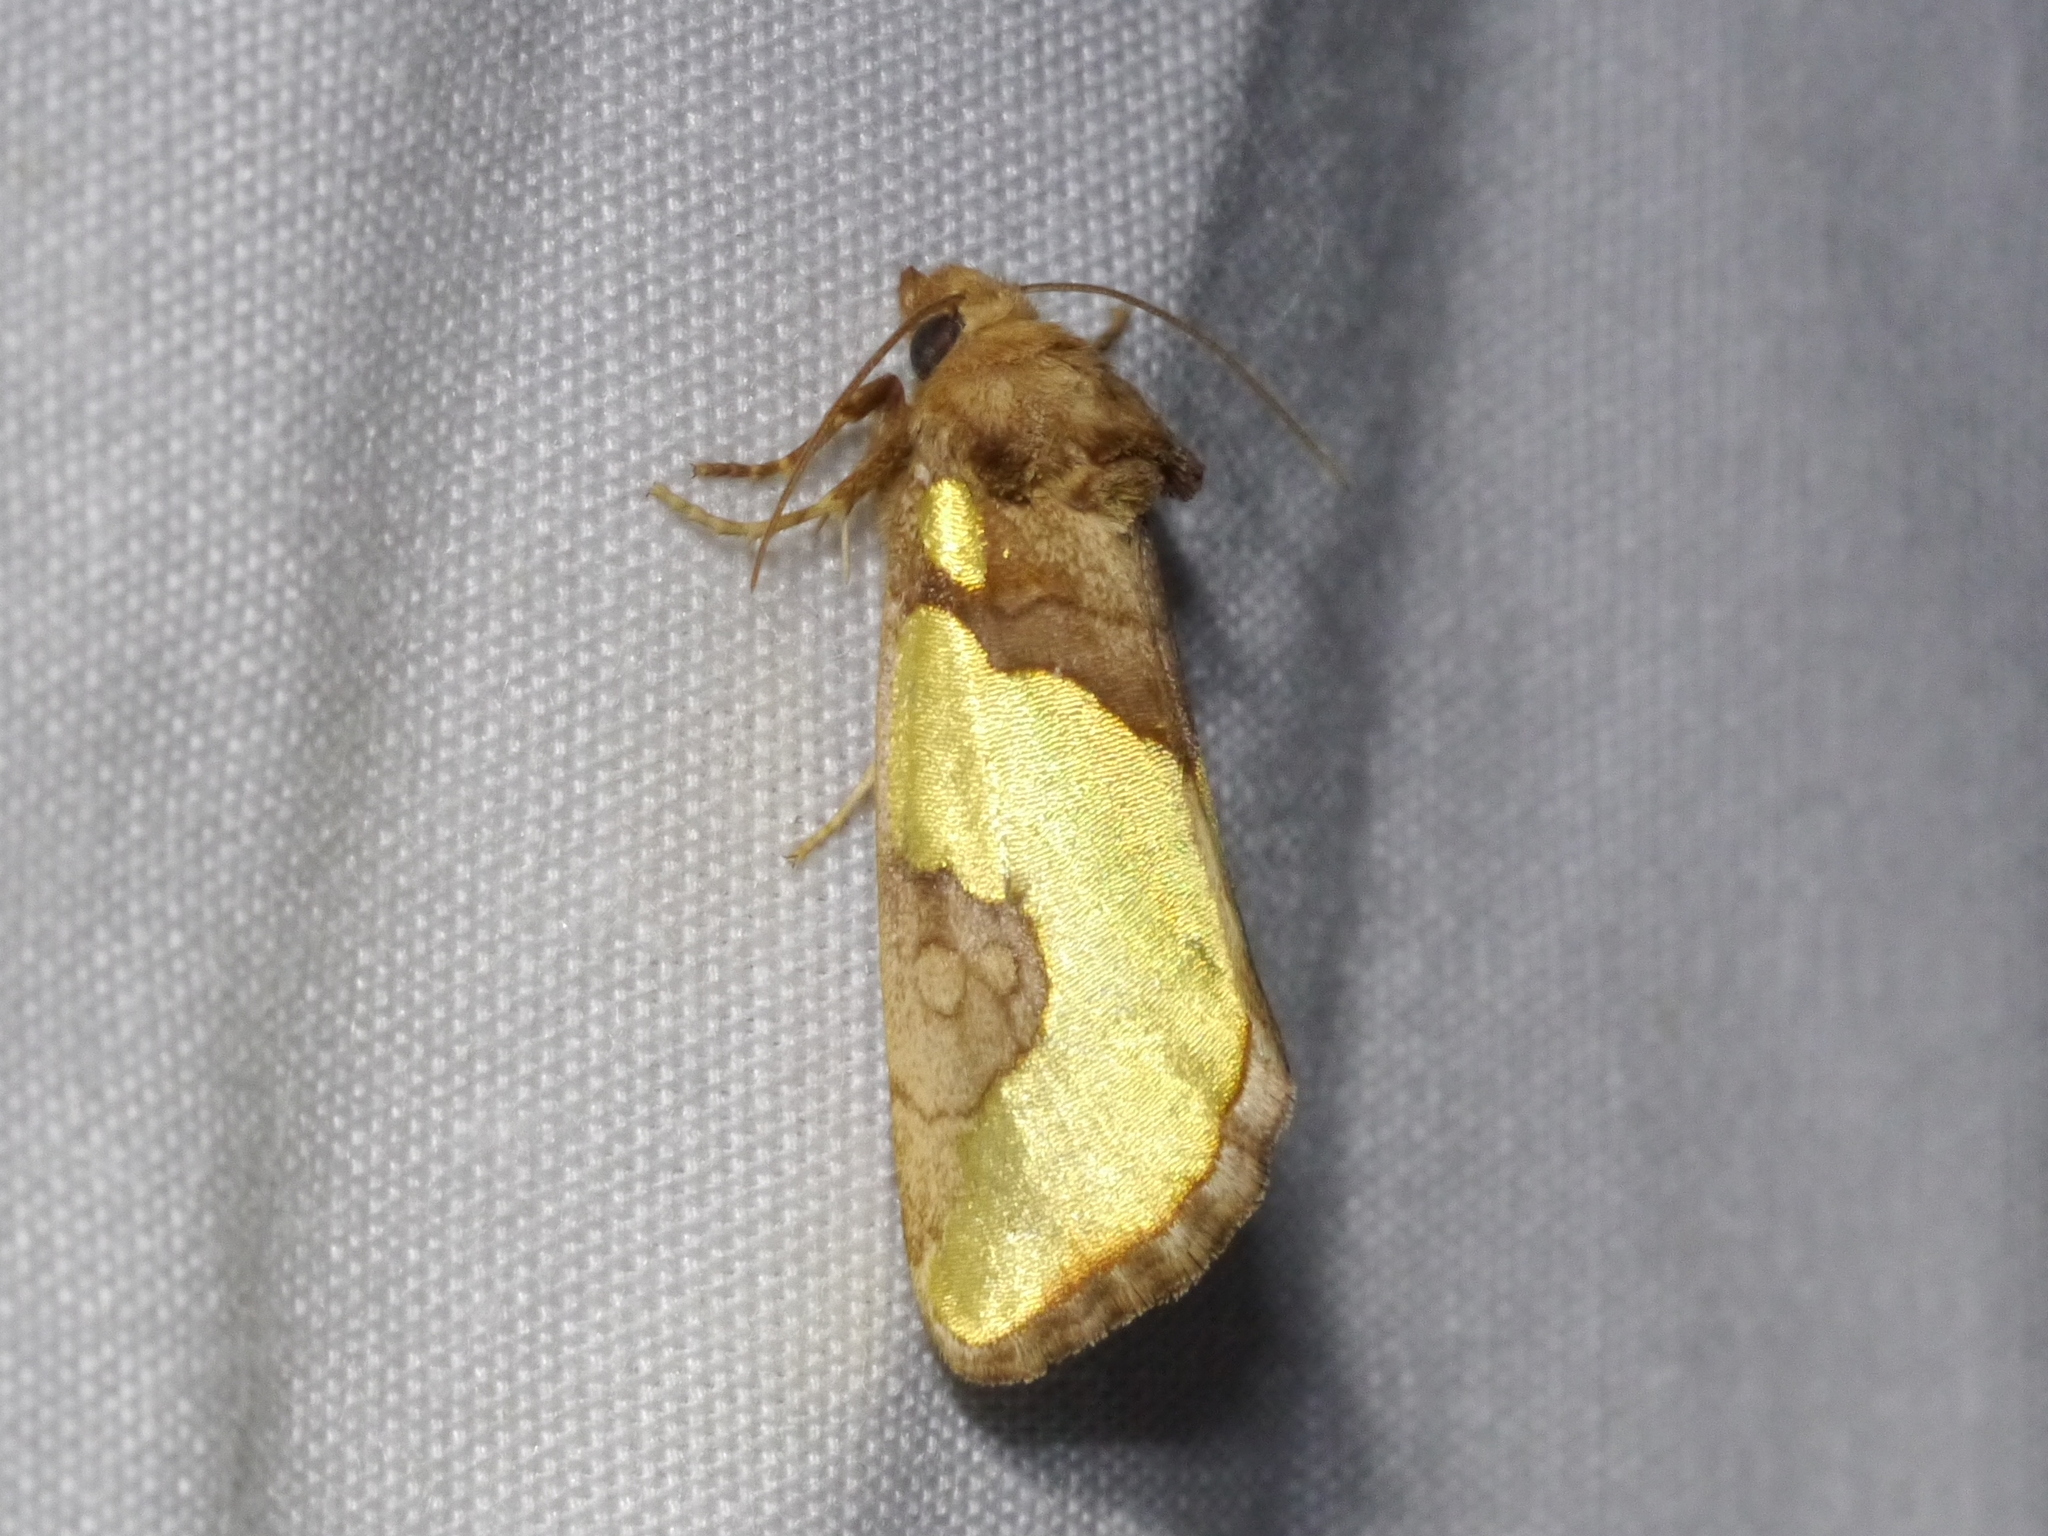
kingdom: Animalia
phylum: Arthropoda
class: Insecta
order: Lepidoptera
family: Noctuidae
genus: Chalcopasta
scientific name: Chalcopasta howardi
